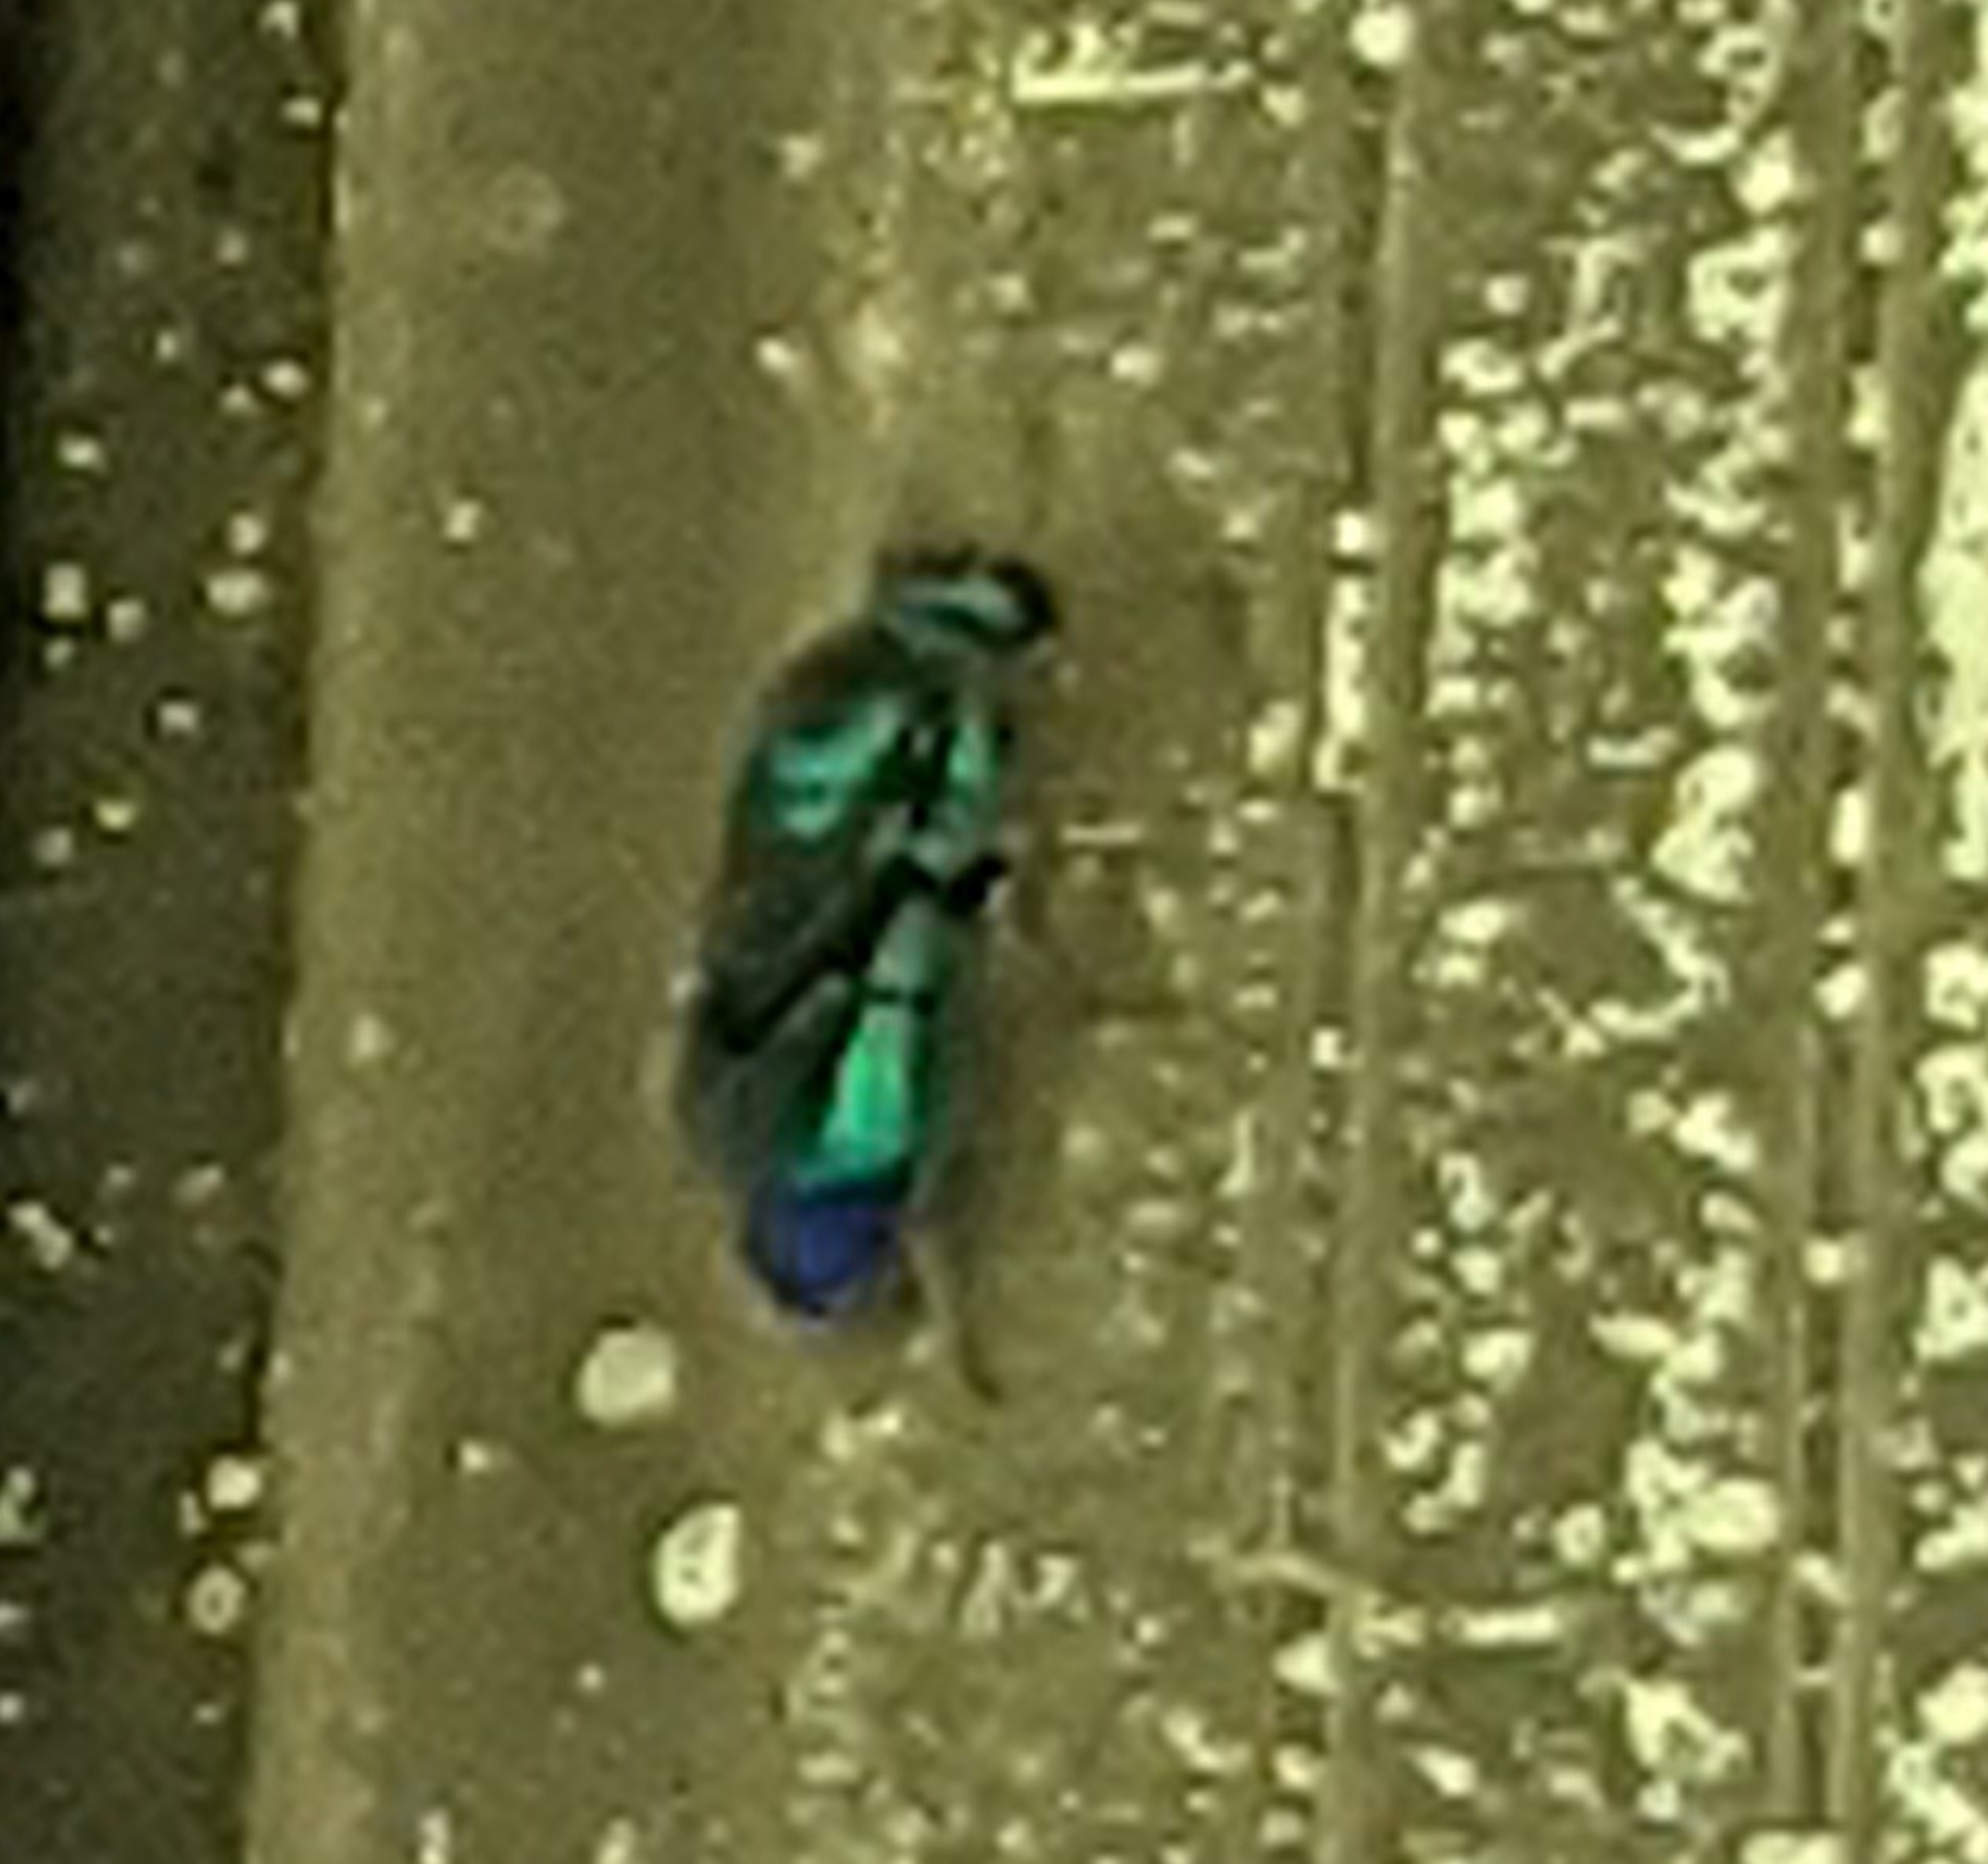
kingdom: Animalia
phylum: Arthropoda
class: Insecta
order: Hymenoptera
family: Chrysididae
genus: Chrysis
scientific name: Chrysis angolensis
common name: Cuckoo wasp
